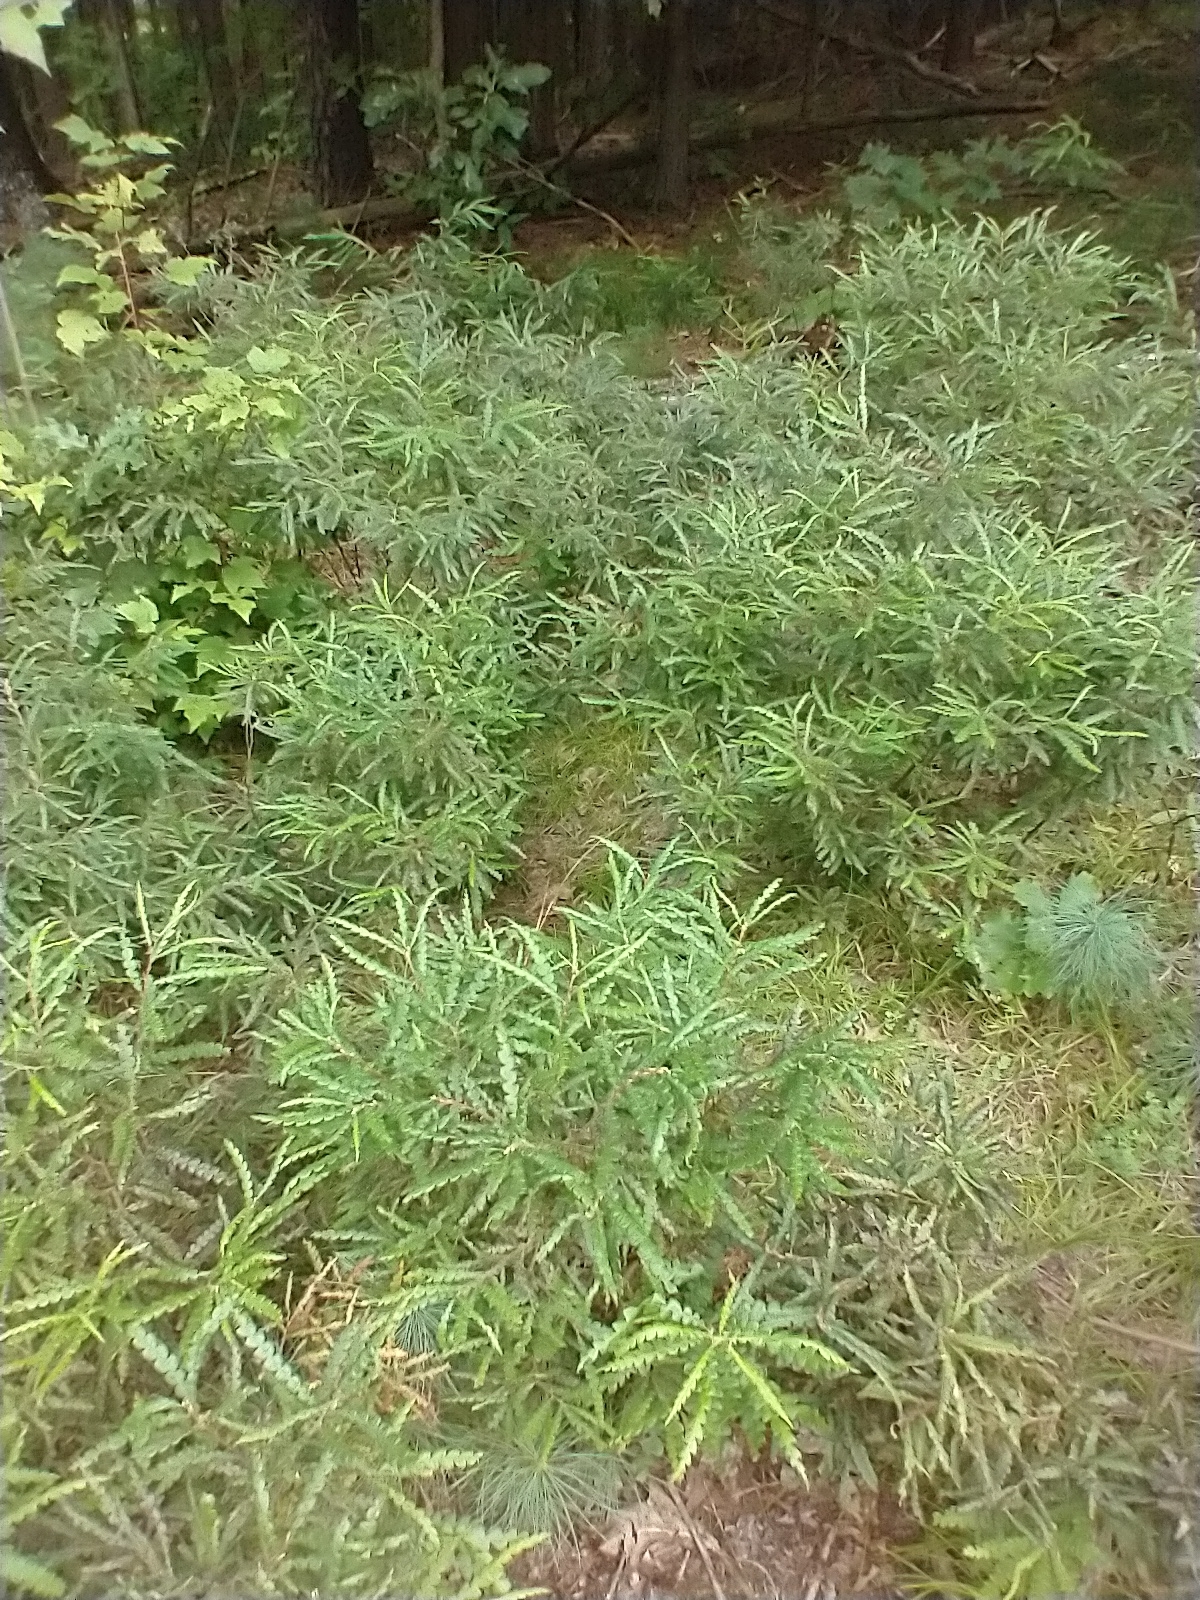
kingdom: Plantae
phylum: Tracheophyta
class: Magnoliopsida
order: Fagales
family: Myricaceae
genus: Comptonia
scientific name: Comptonia peregrina
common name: Sweet-fern
